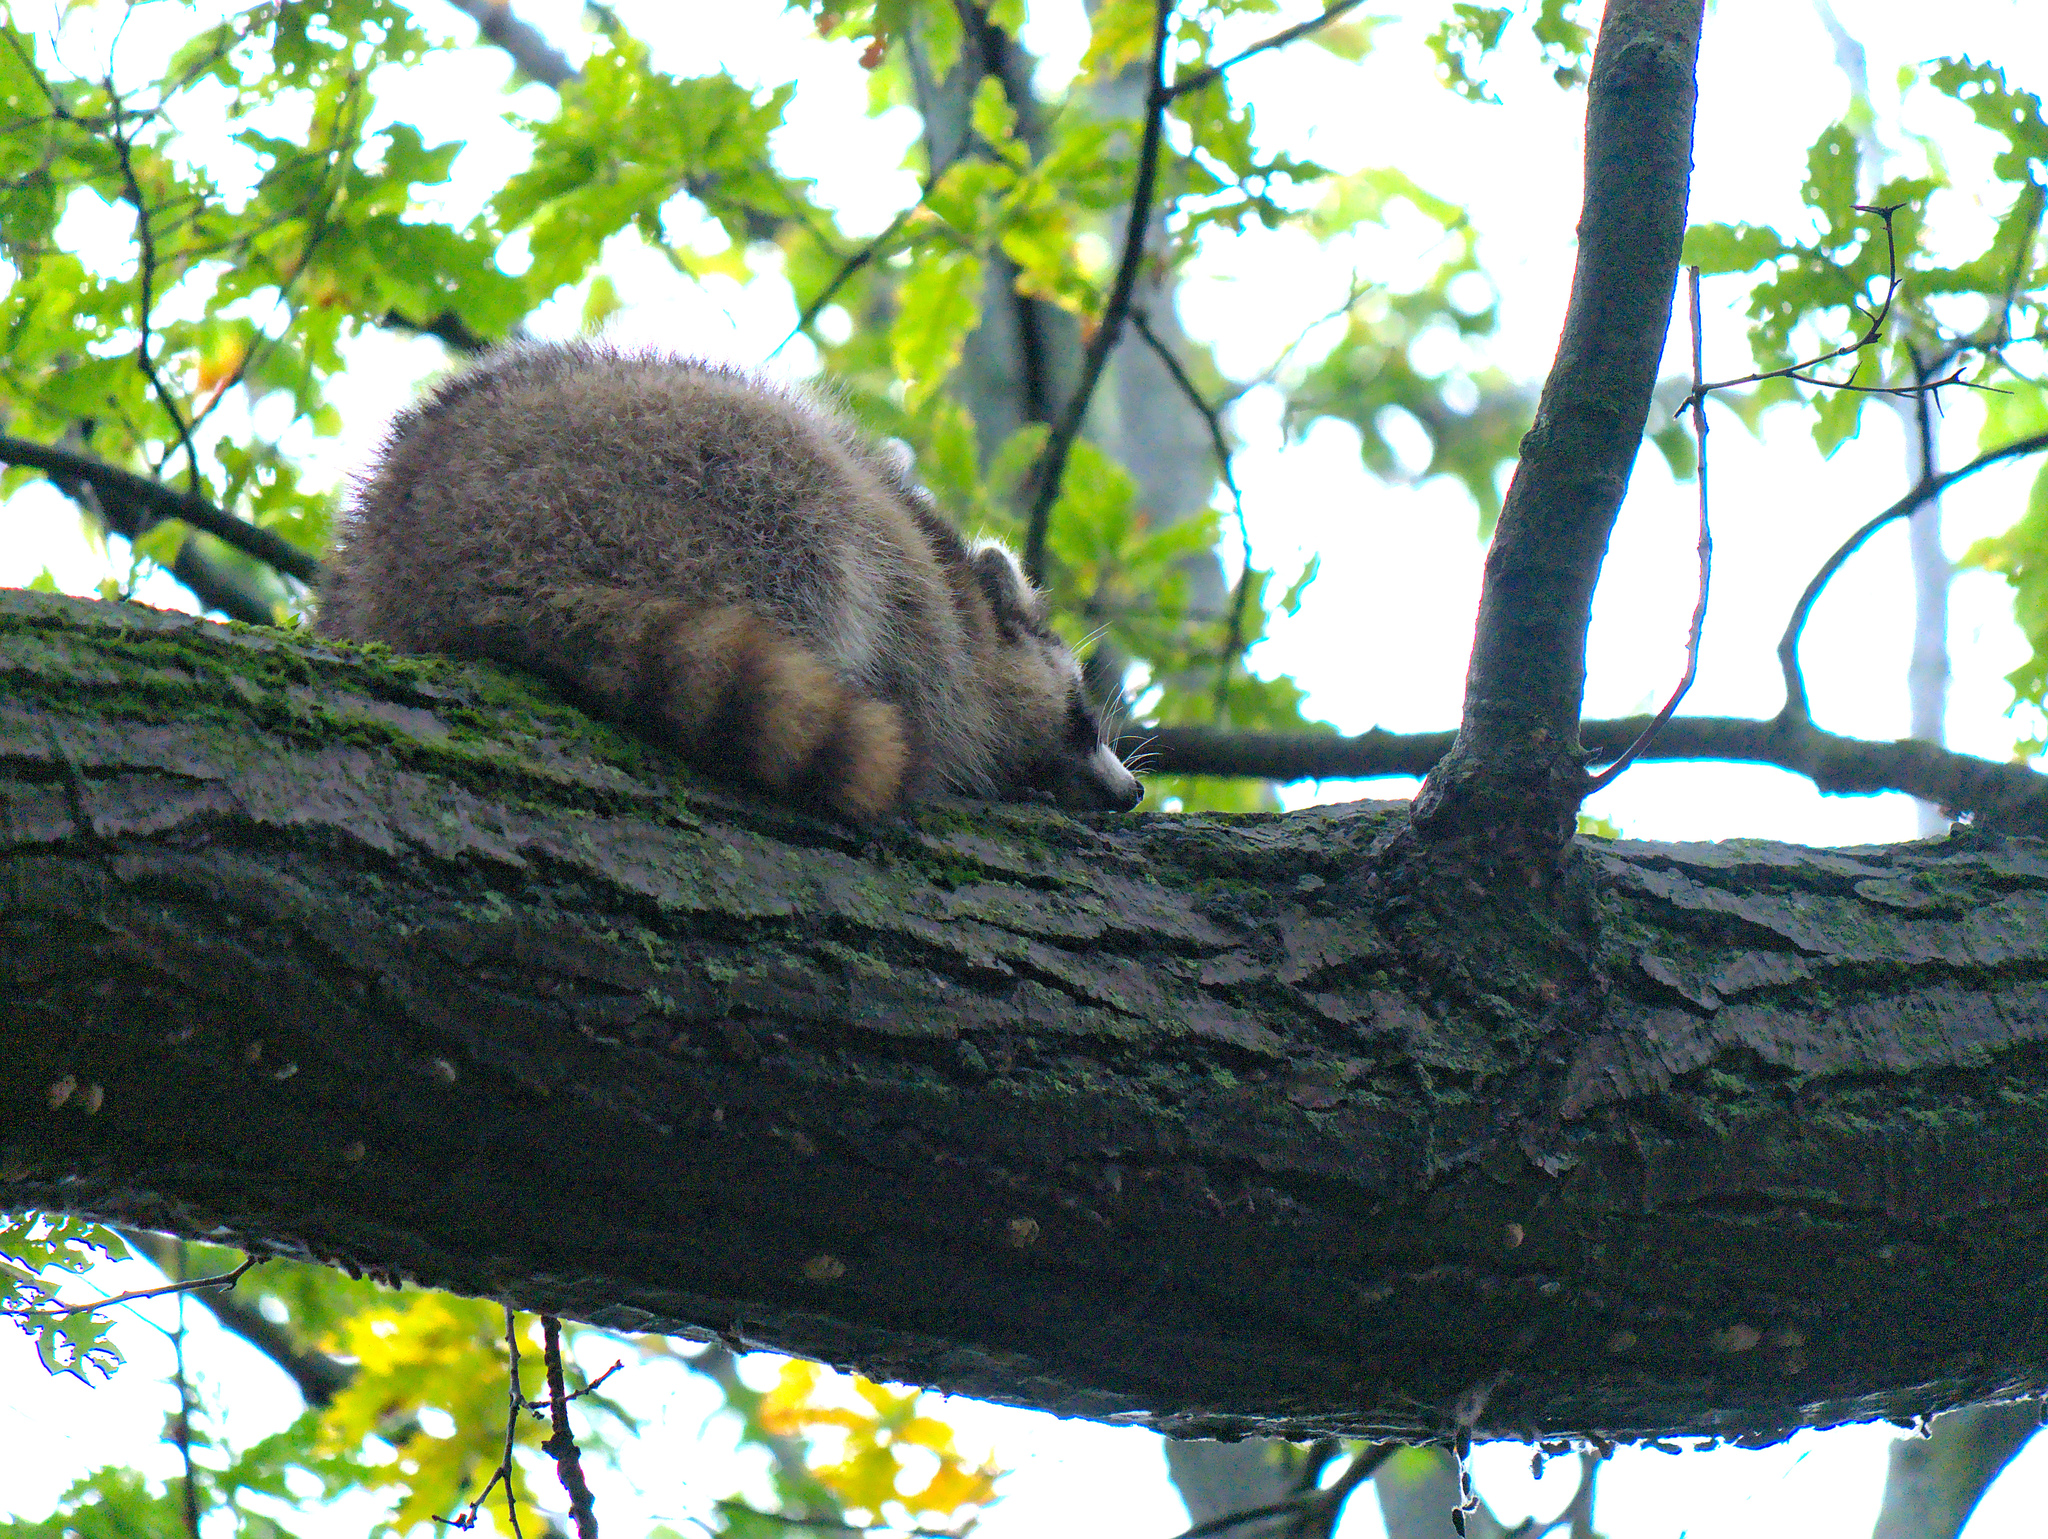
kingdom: Animalia
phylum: Chordata
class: Mammalia
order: Carnivora
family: Procyonidae
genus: Procyon
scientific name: Procyon lotor
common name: Raccoon
